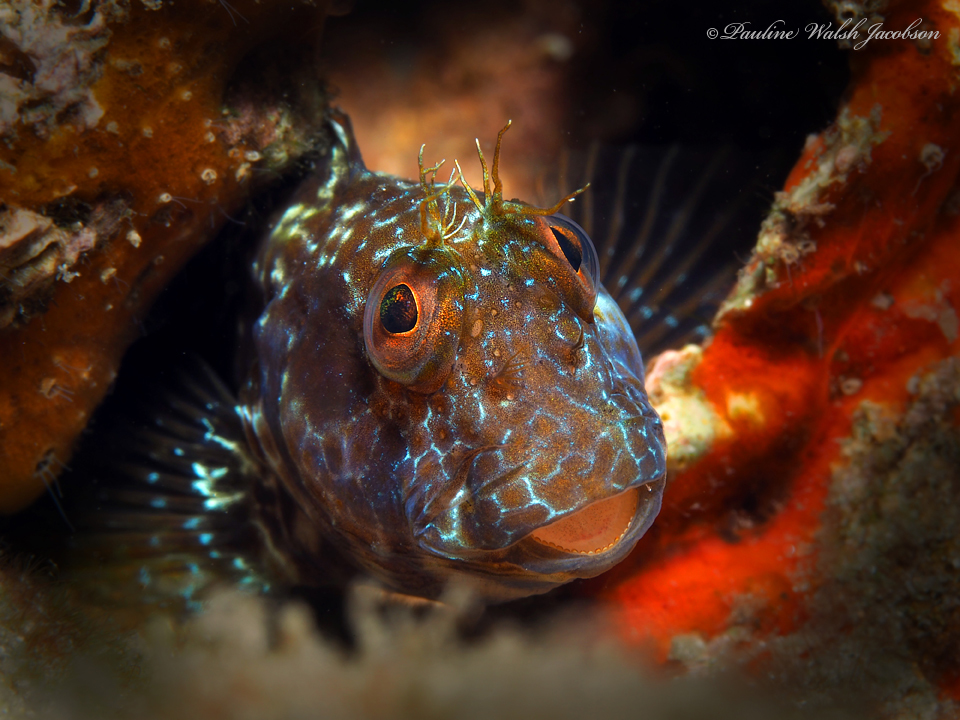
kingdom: Animalia
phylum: Chordata
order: Perciformes
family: Blenniidae
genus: Parablennius
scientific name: Parablennius marmoreus
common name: Seaweed blenny
